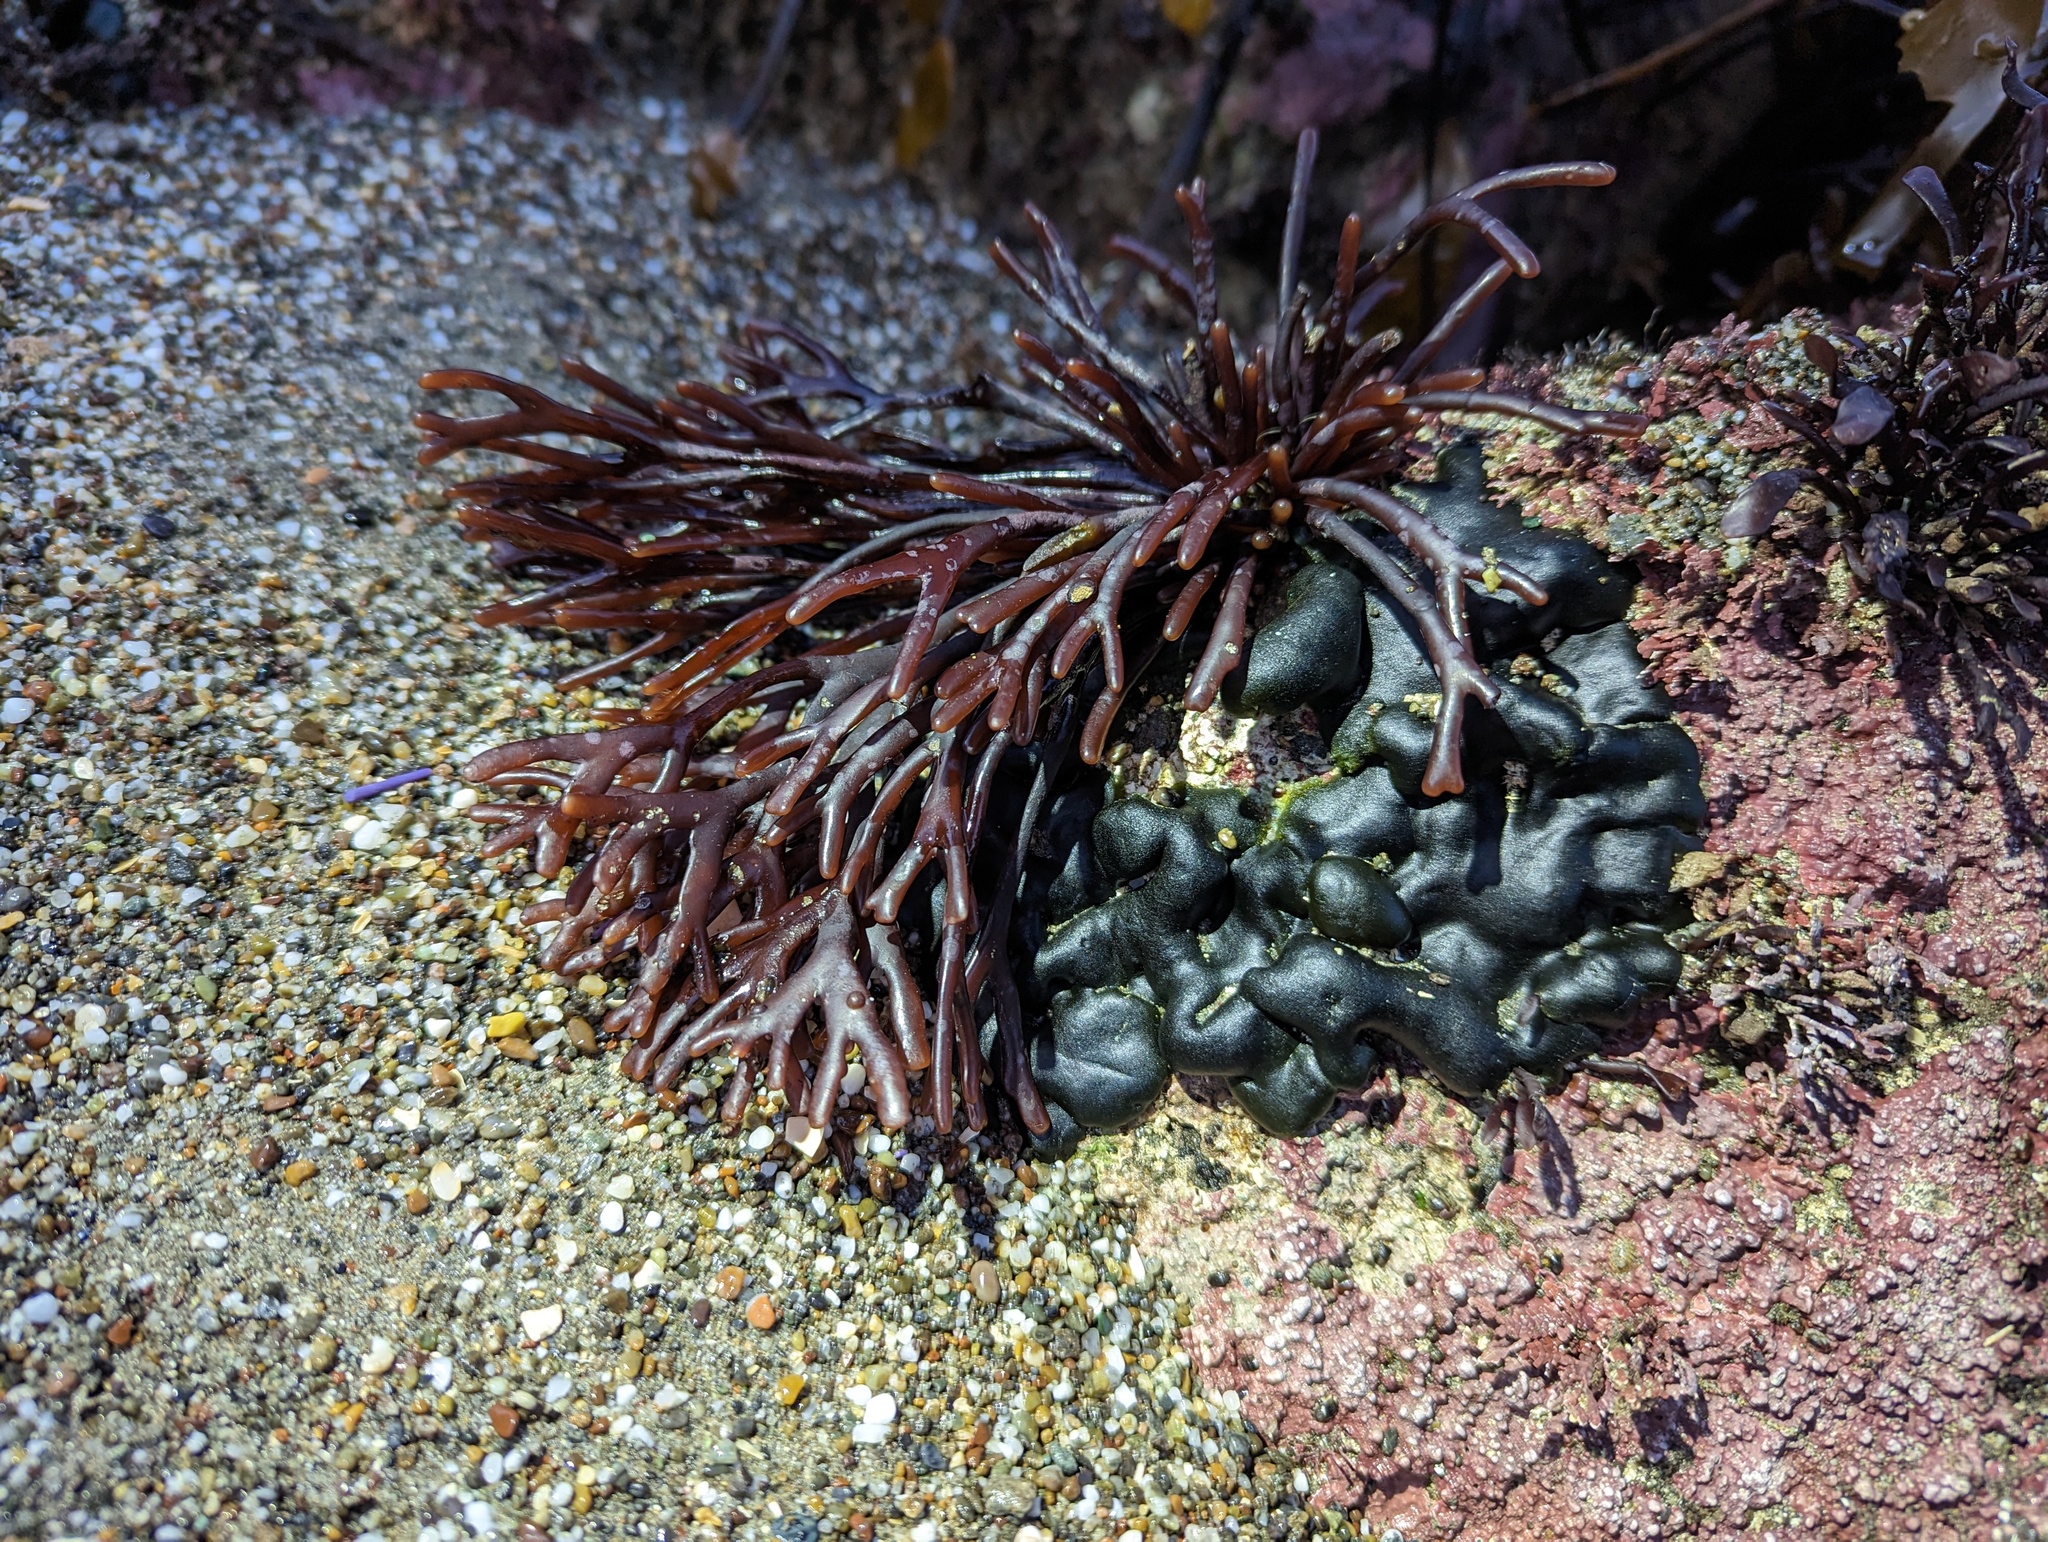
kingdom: Plantae
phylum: Rhodophyta
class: Florideophyceae
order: Gigartinales
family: Phyllophoraceae
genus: Ahnfeltiopsis
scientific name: Ahnfeltiopsis linearis
